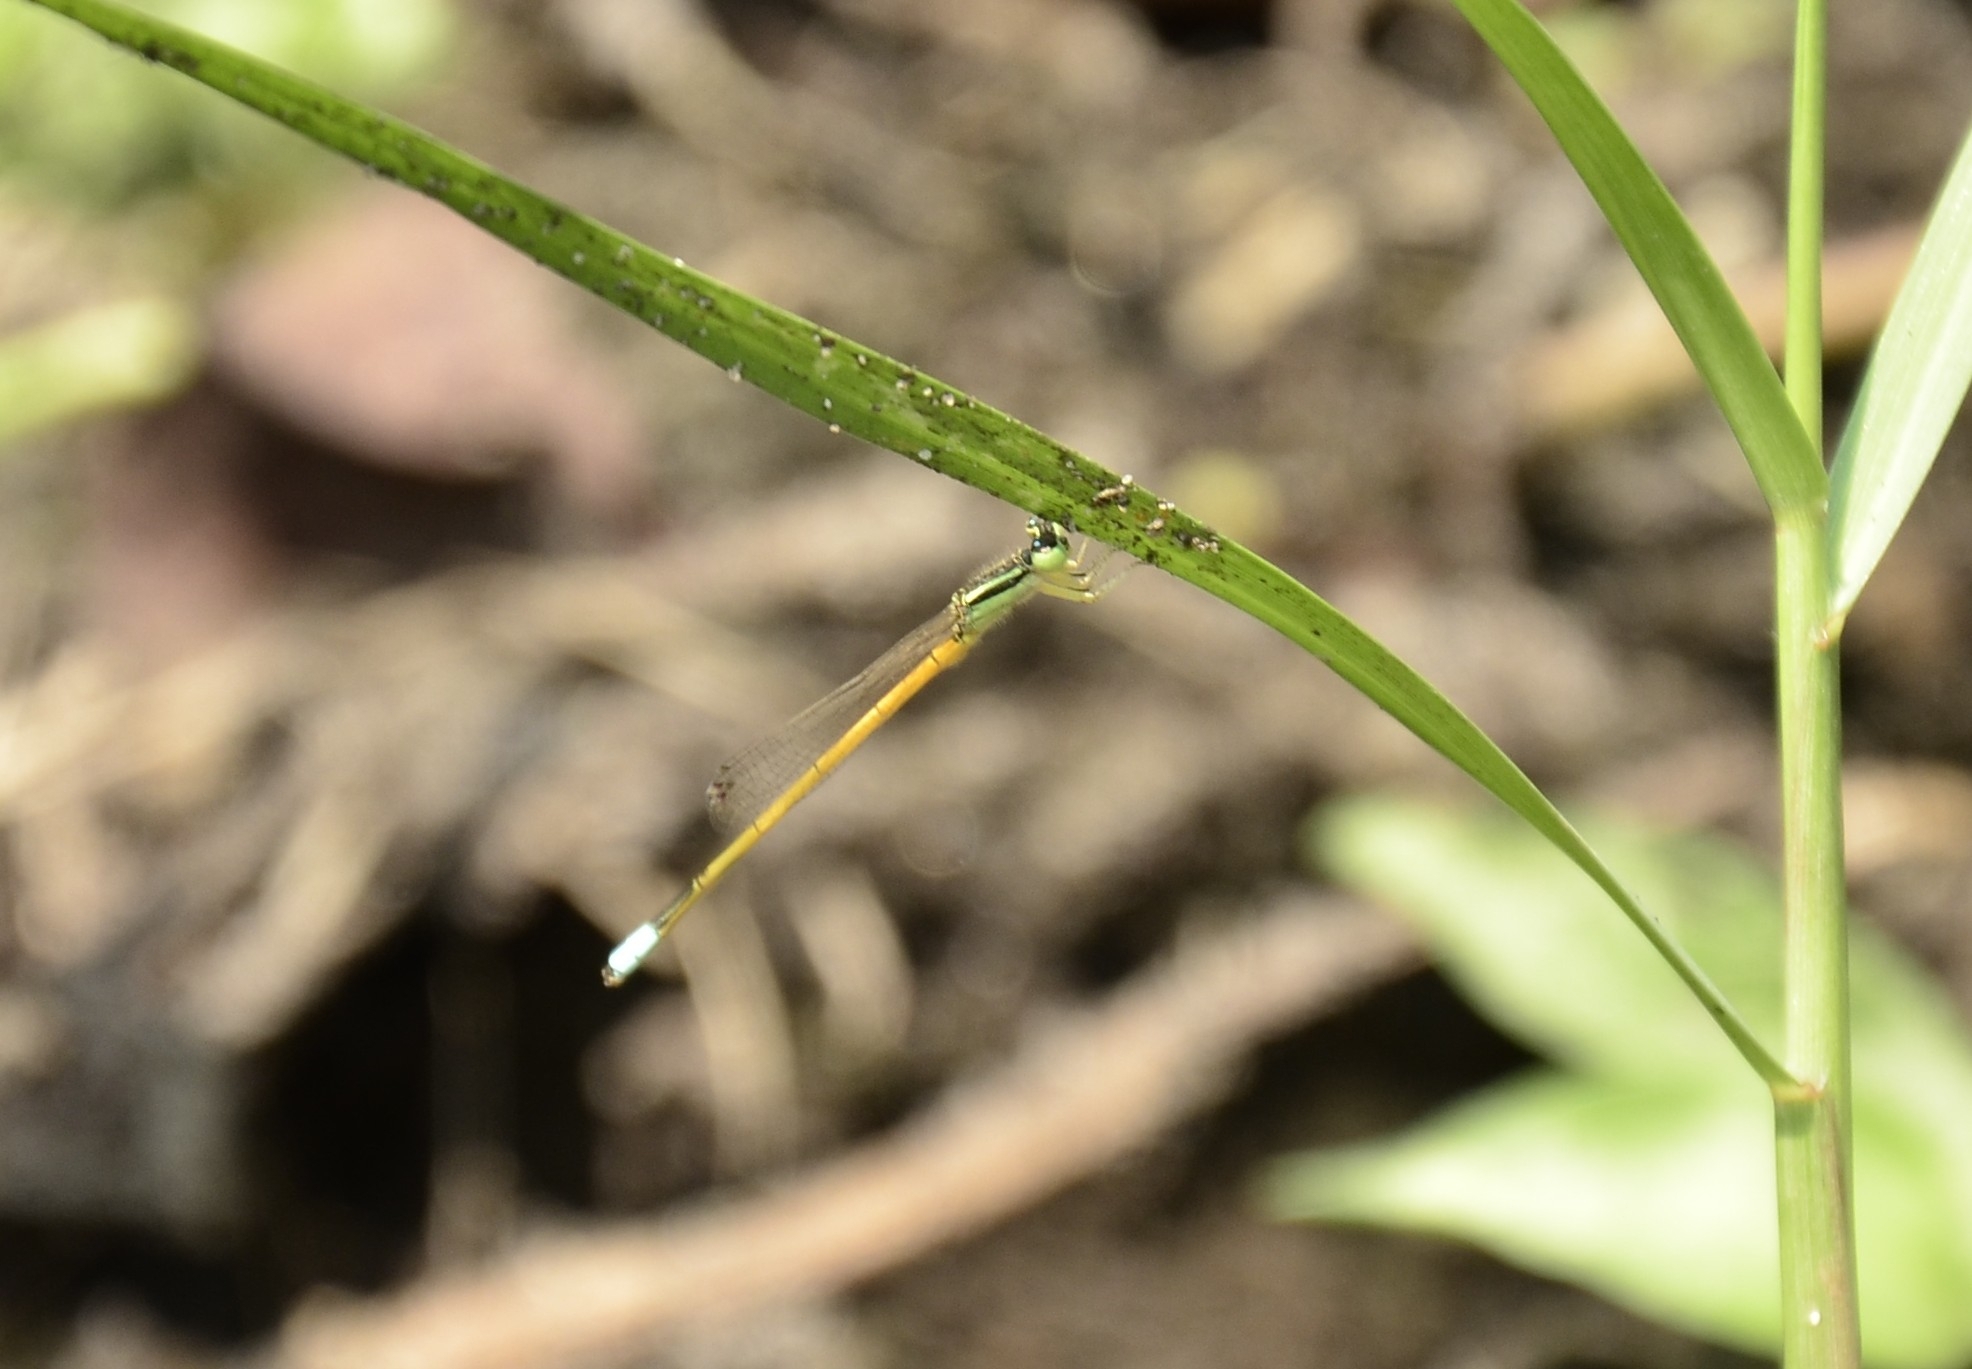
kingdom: Animalia
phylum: Arthropoda
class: Insecta
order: Odonata
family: Coenagrionidae
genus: Ischnura
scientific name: Ischnura rubilio
